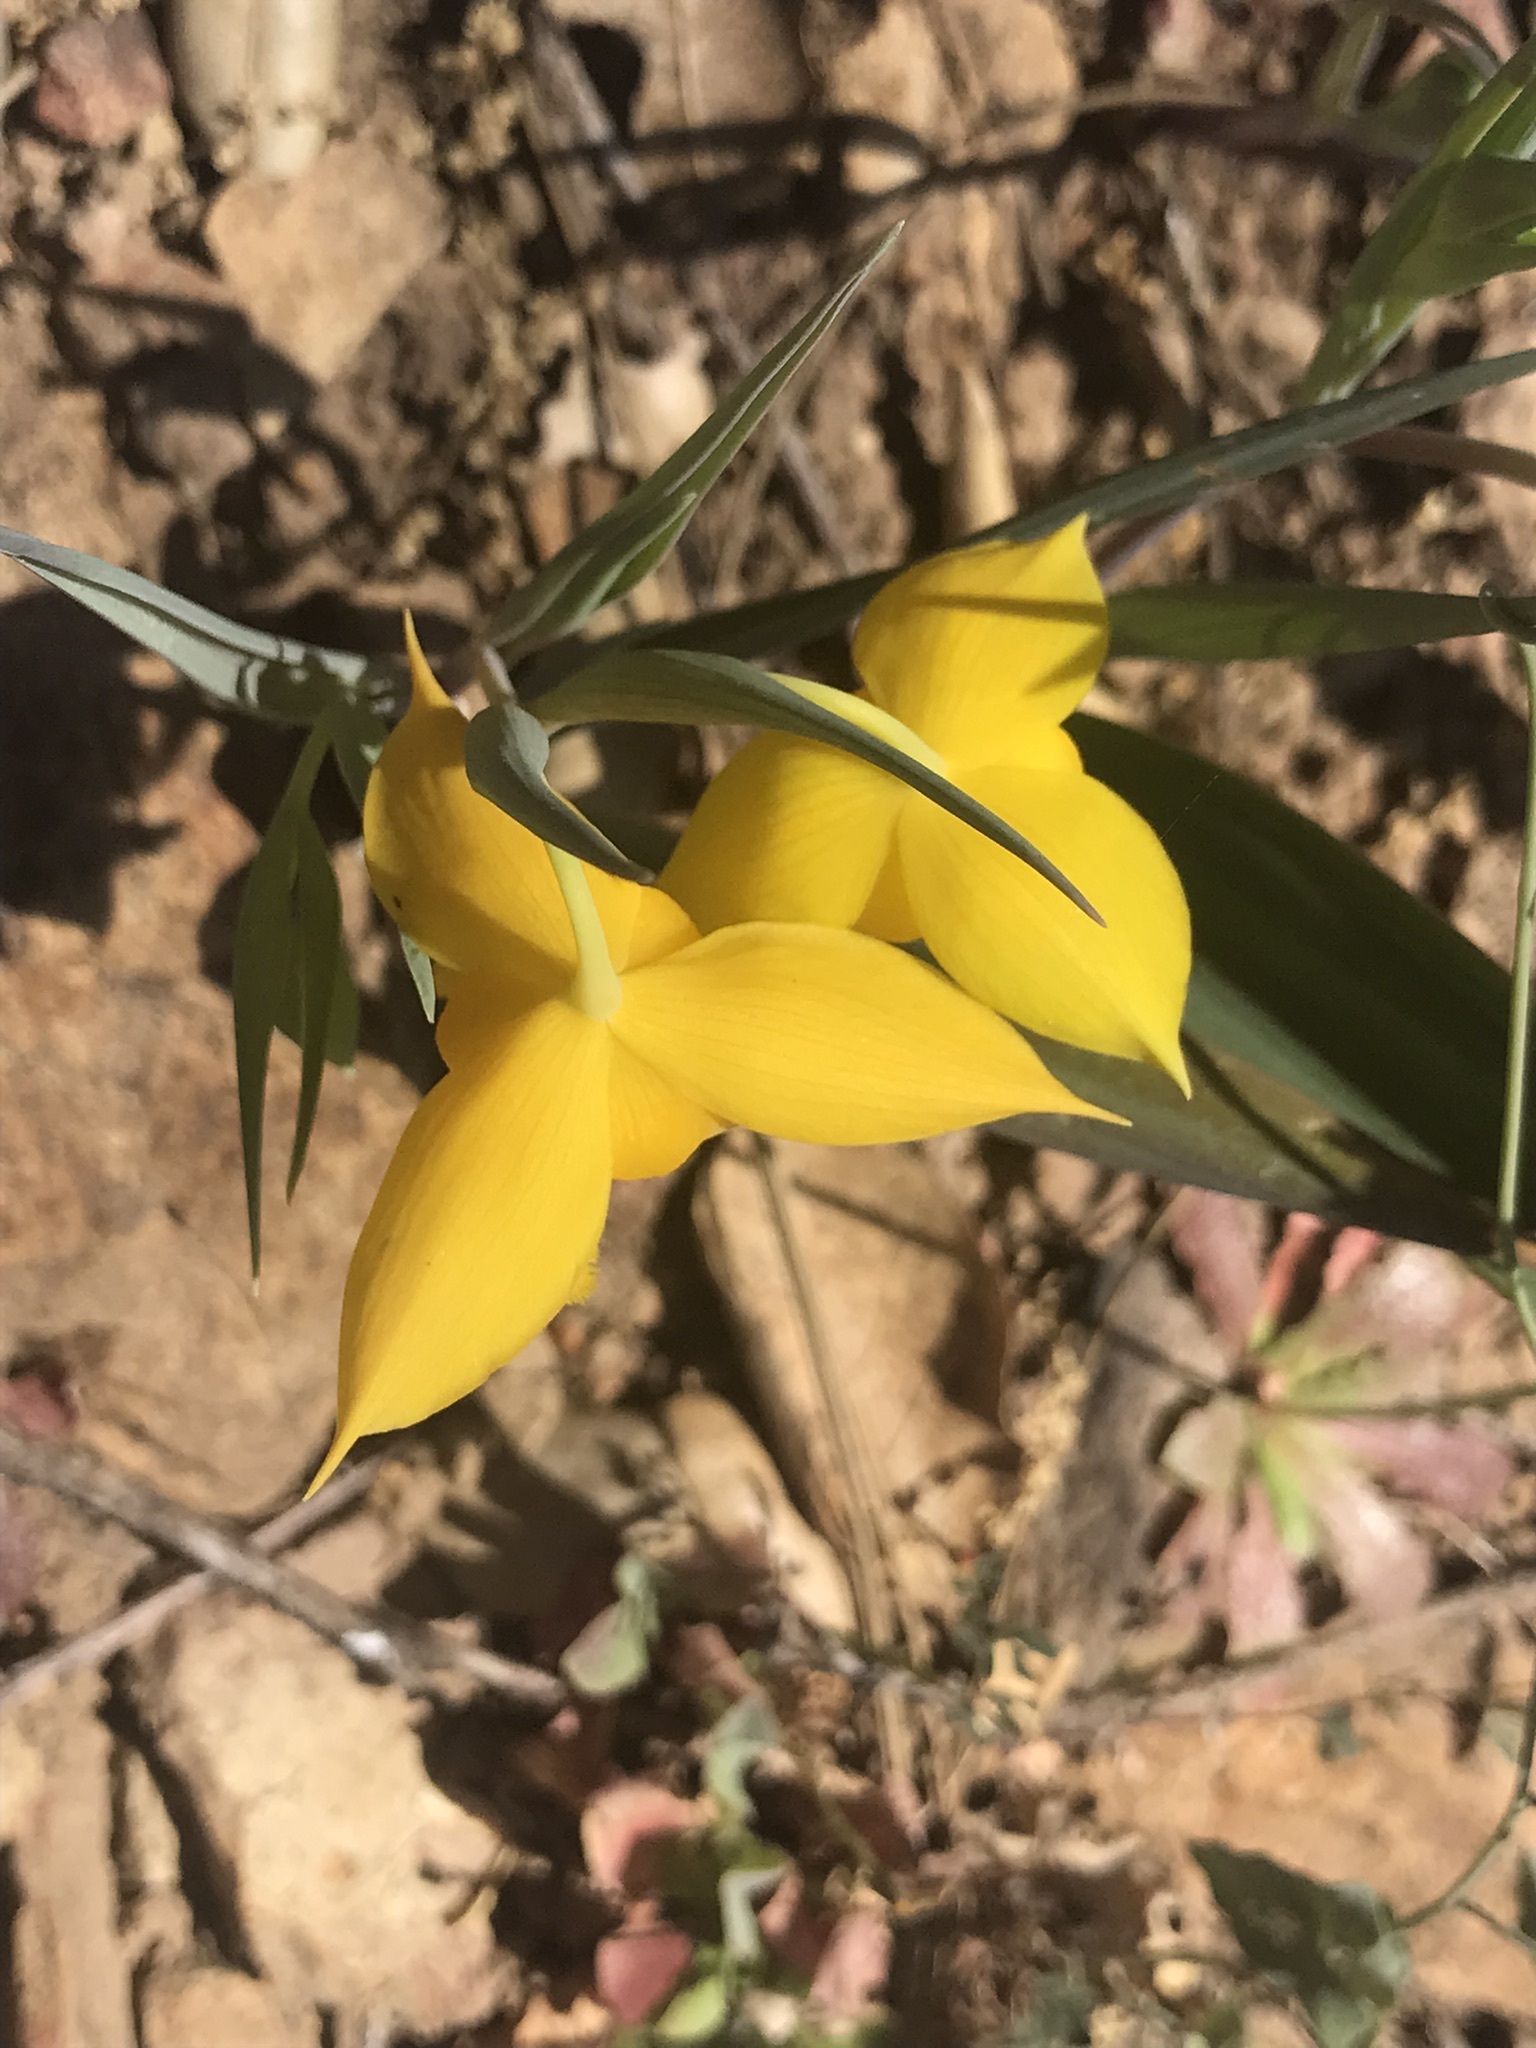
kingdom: Plantae
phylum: Tracheophyta
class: Liliopsida
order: Liliales
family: Liliaceae
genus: Calochortus
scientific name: Calochortus amabilis
